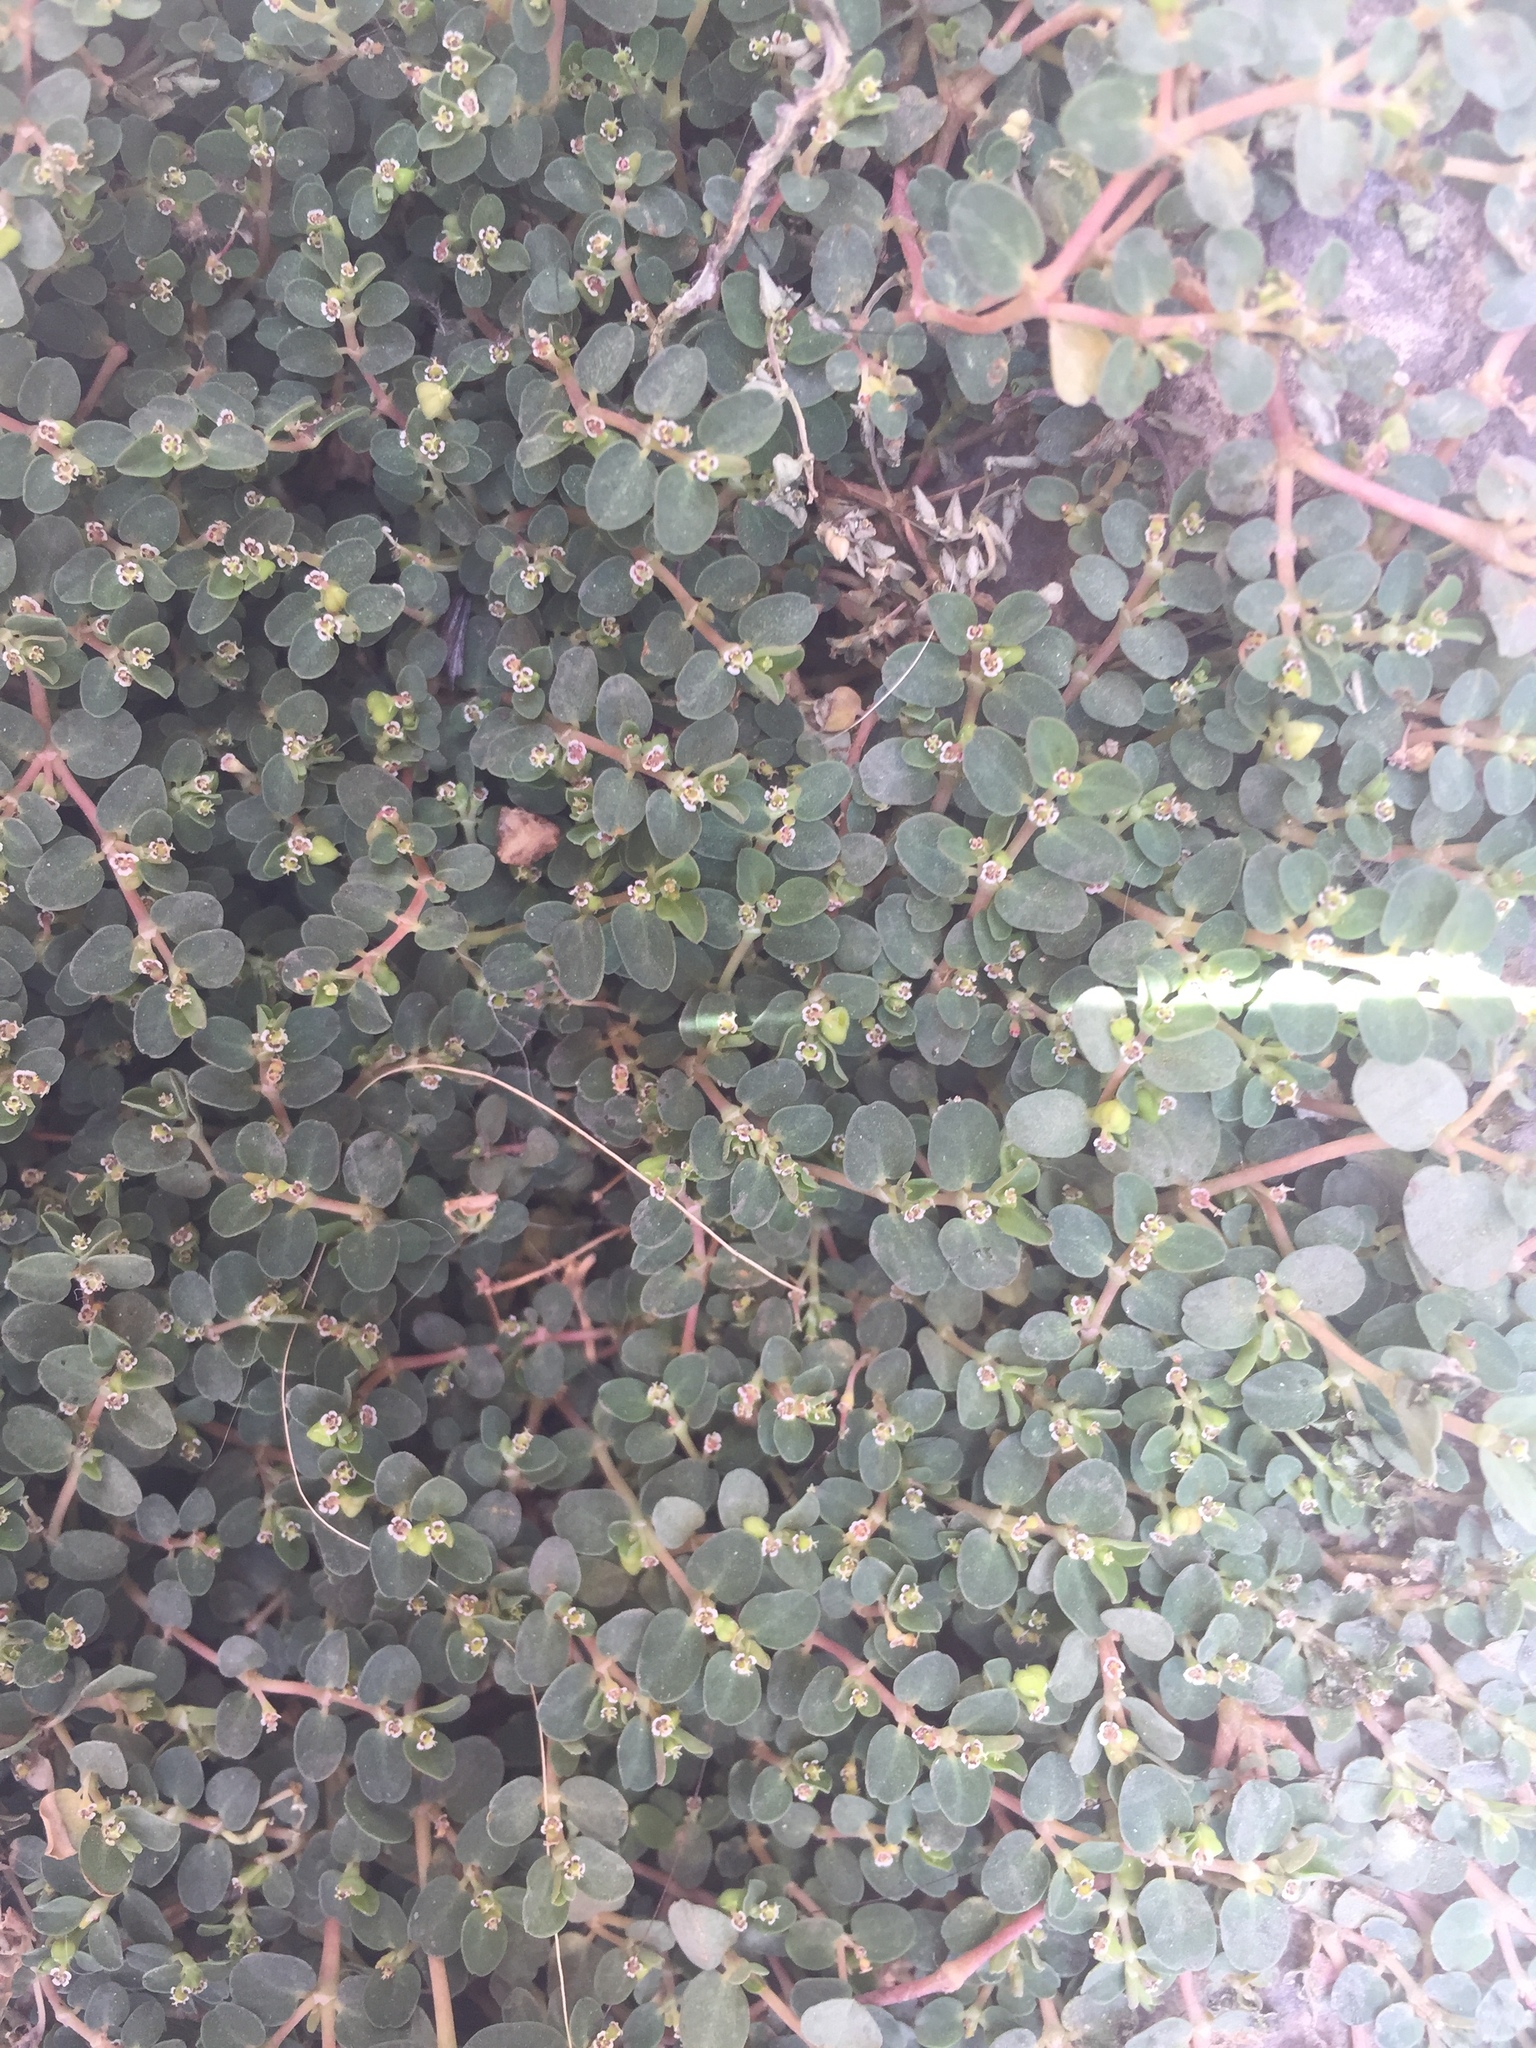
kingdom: Plantae
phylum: Tracheophyta
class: Magnoliopsida
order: Malpighiales
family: Euphorbiaceae
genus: Euphorbia
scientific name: Euphorbia serpens
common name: Matted sandmat
